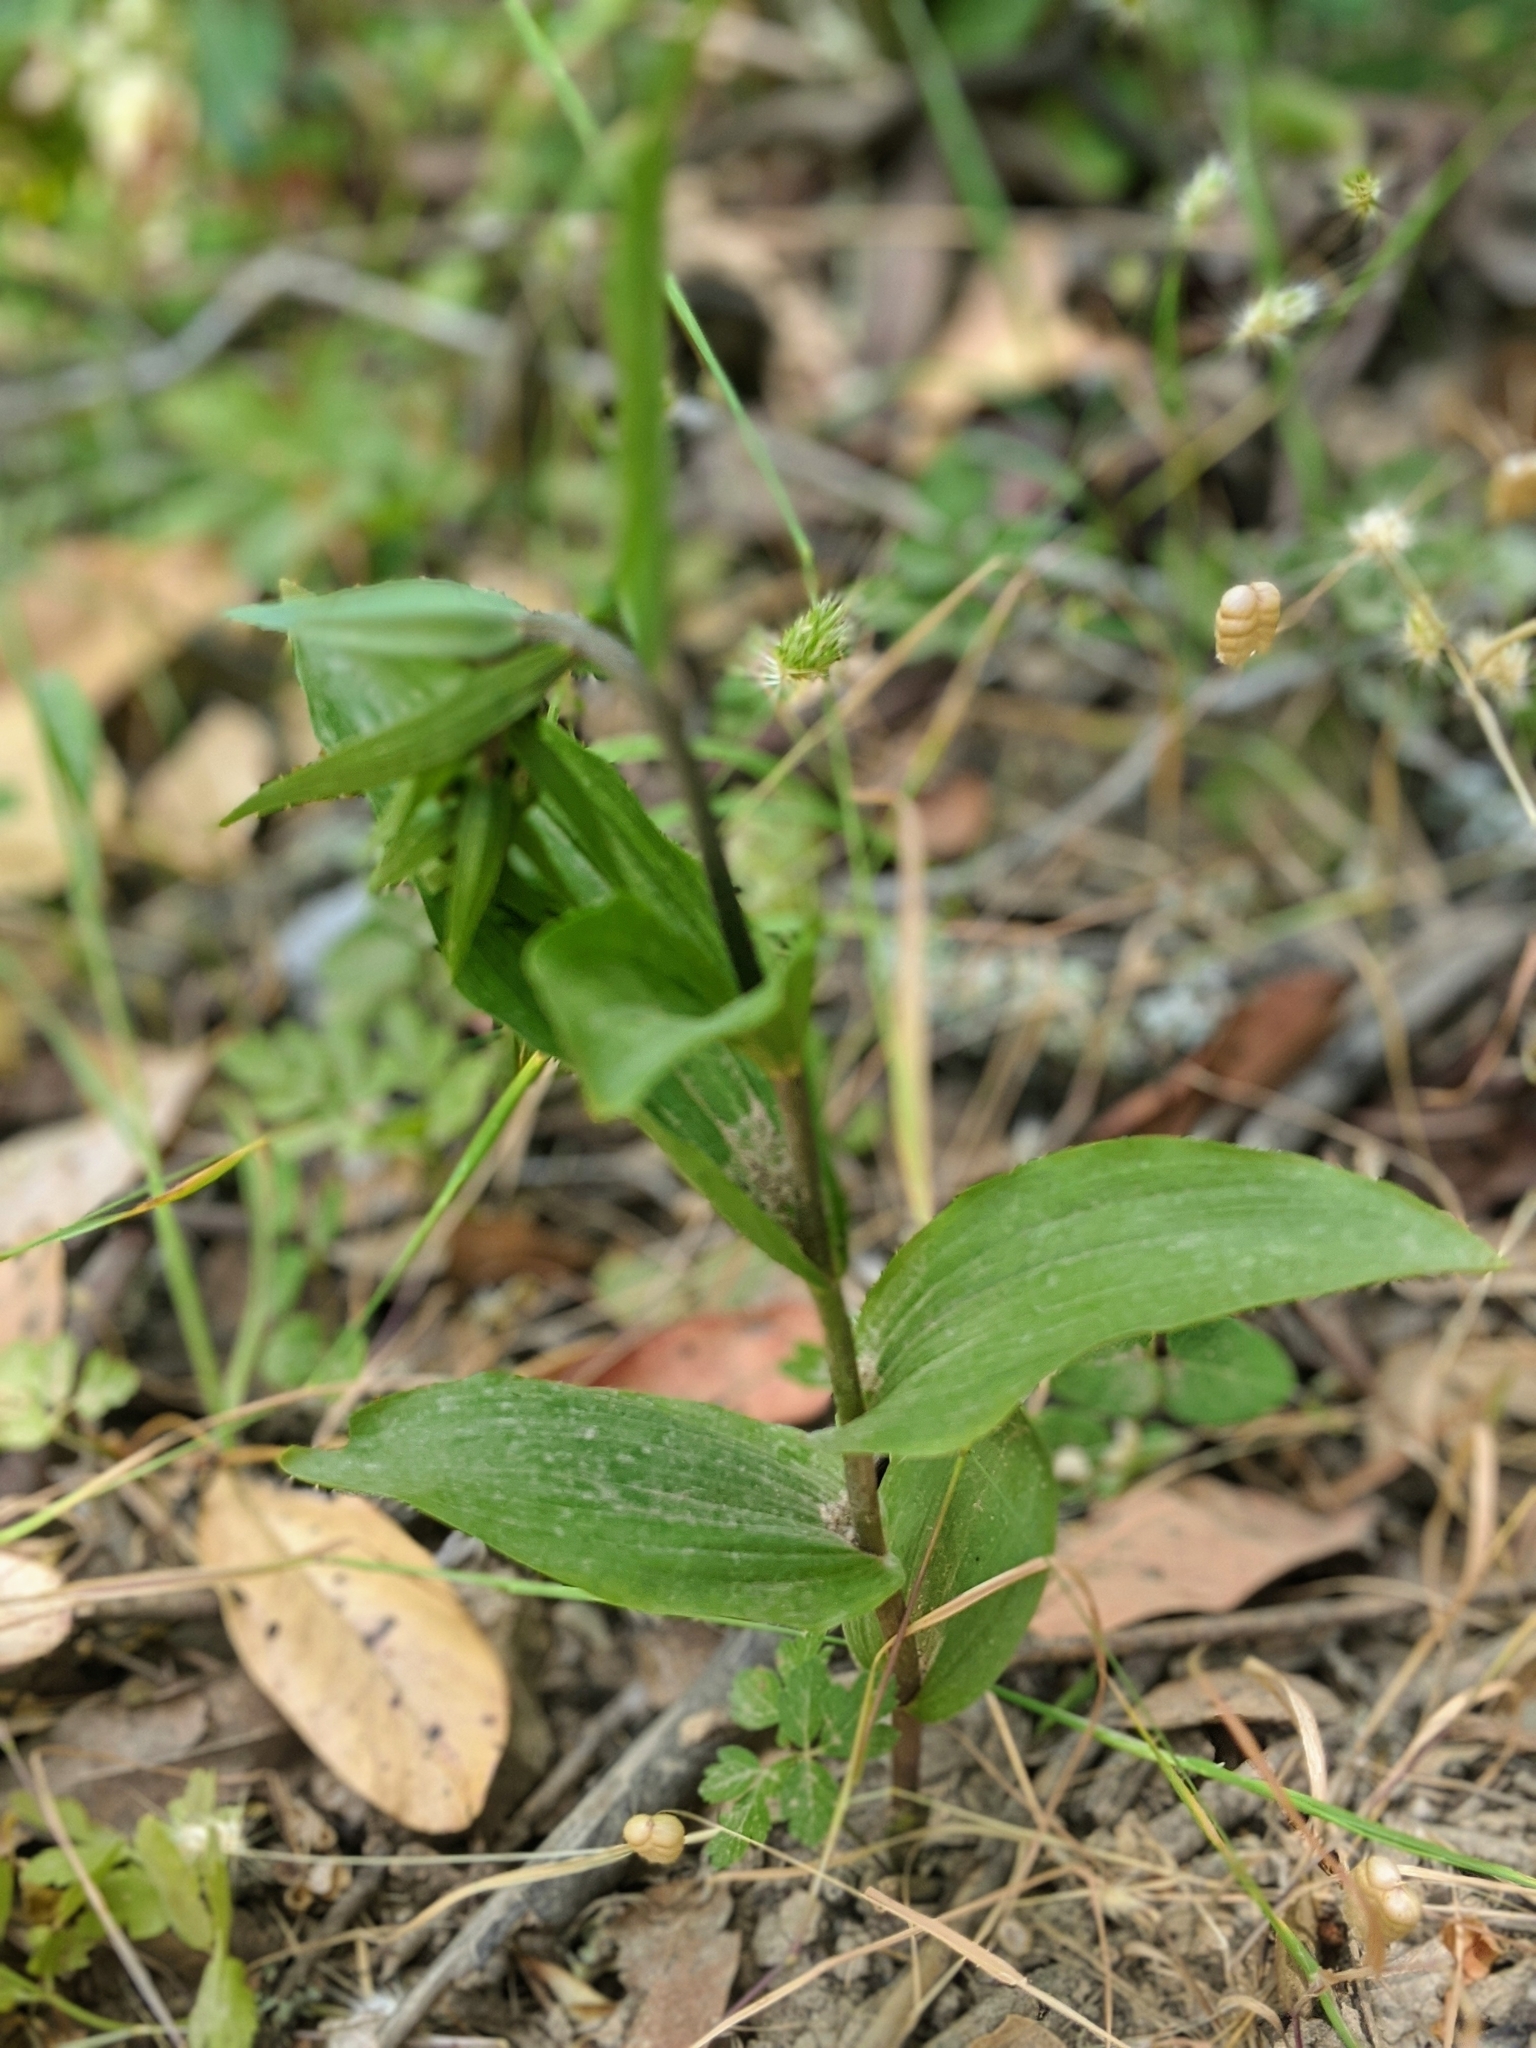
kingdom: Plantae
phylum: Tracheophyta
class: Liliopsida
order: Asparagales
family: Orchidaceae
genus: Epipactis
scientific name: Epipactis helleborine
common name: Broad-leaved helleborine
